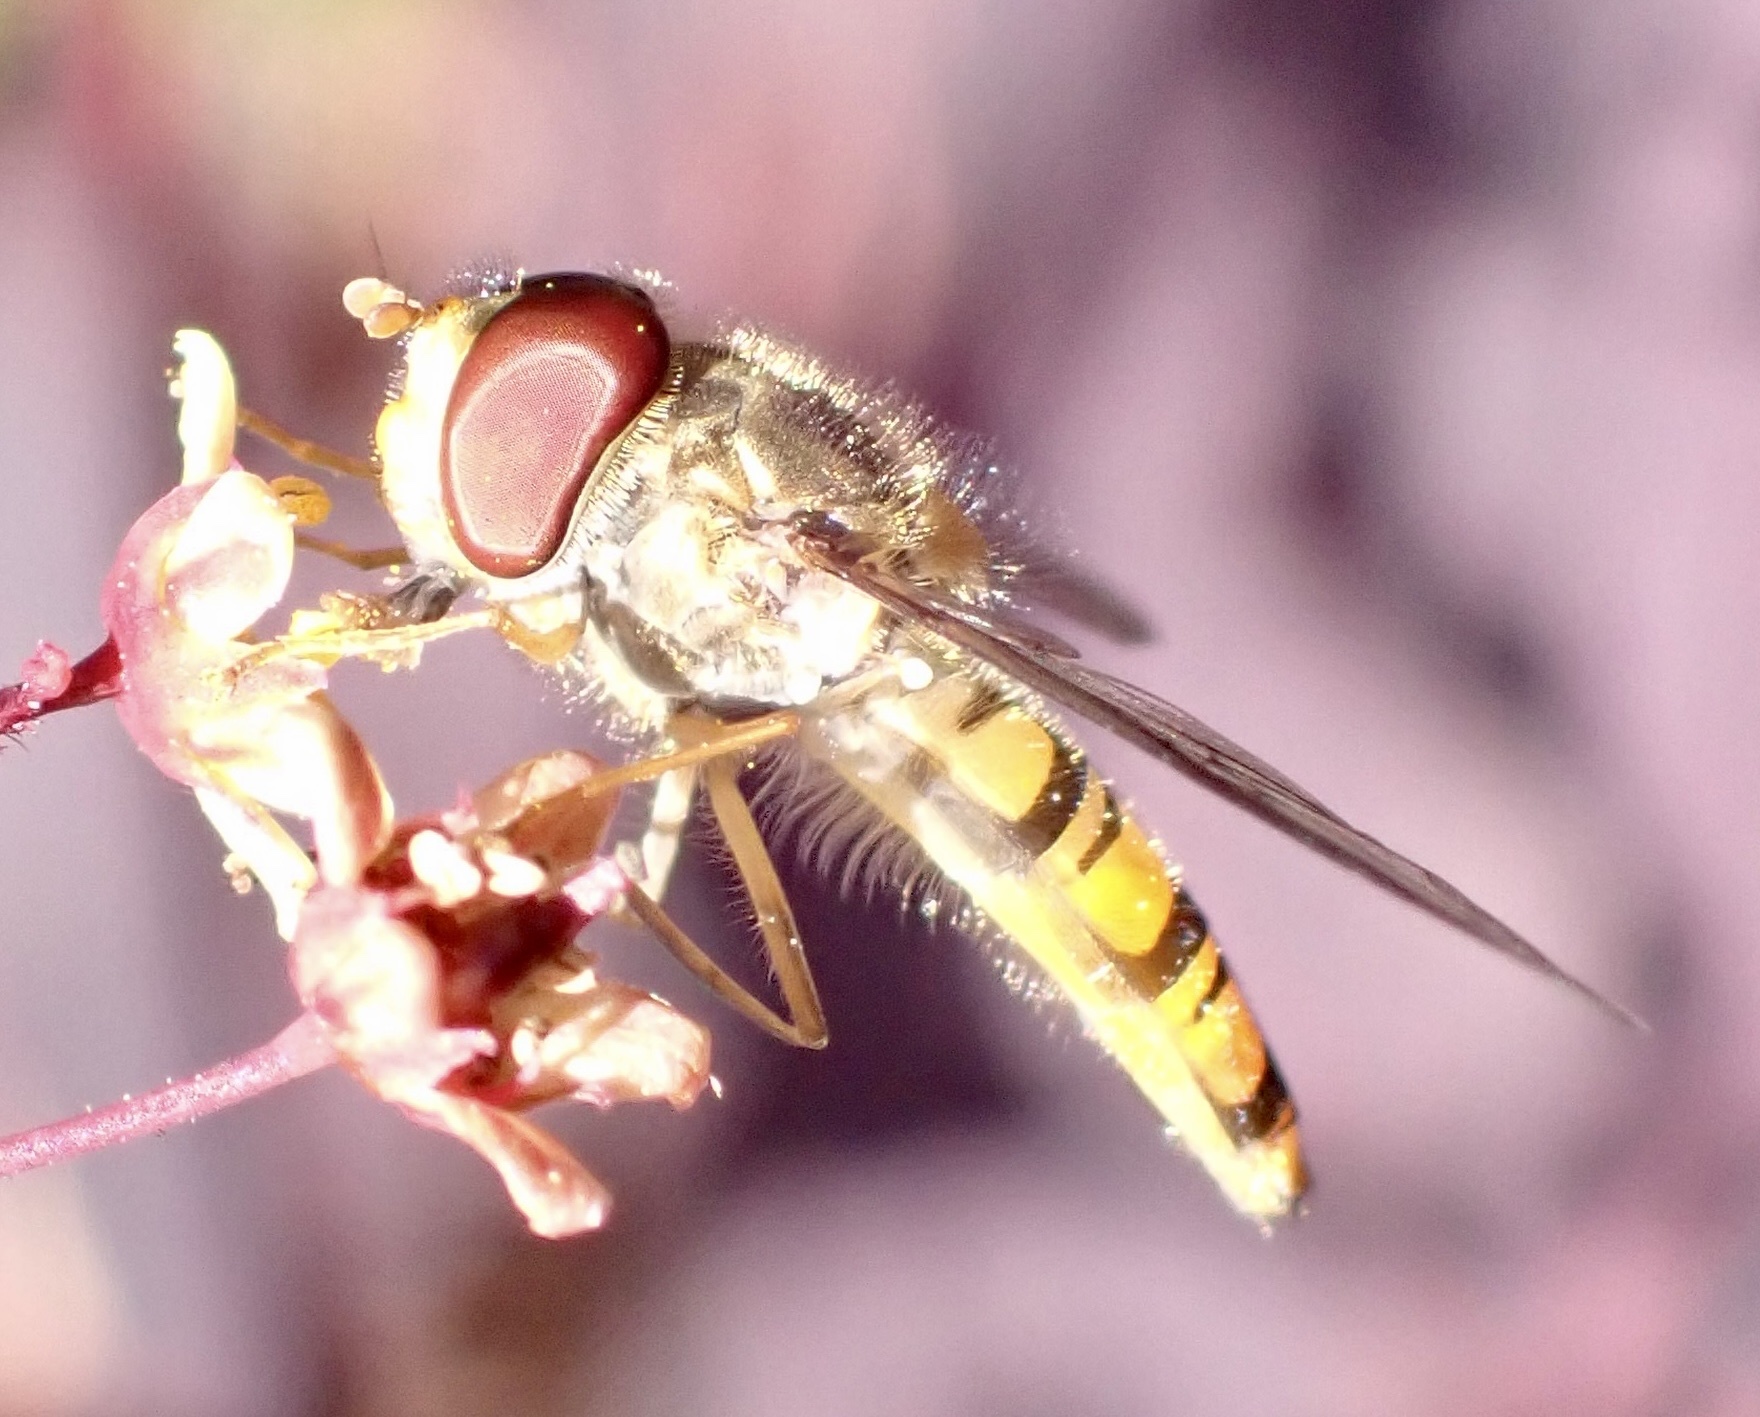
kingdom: Animalia
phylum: Arthropoda
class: Insecta
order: Diptera
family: Syrphidae
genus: Episyrphus
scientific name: Episyrphus balteatus
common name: Marmalade hoverfly
